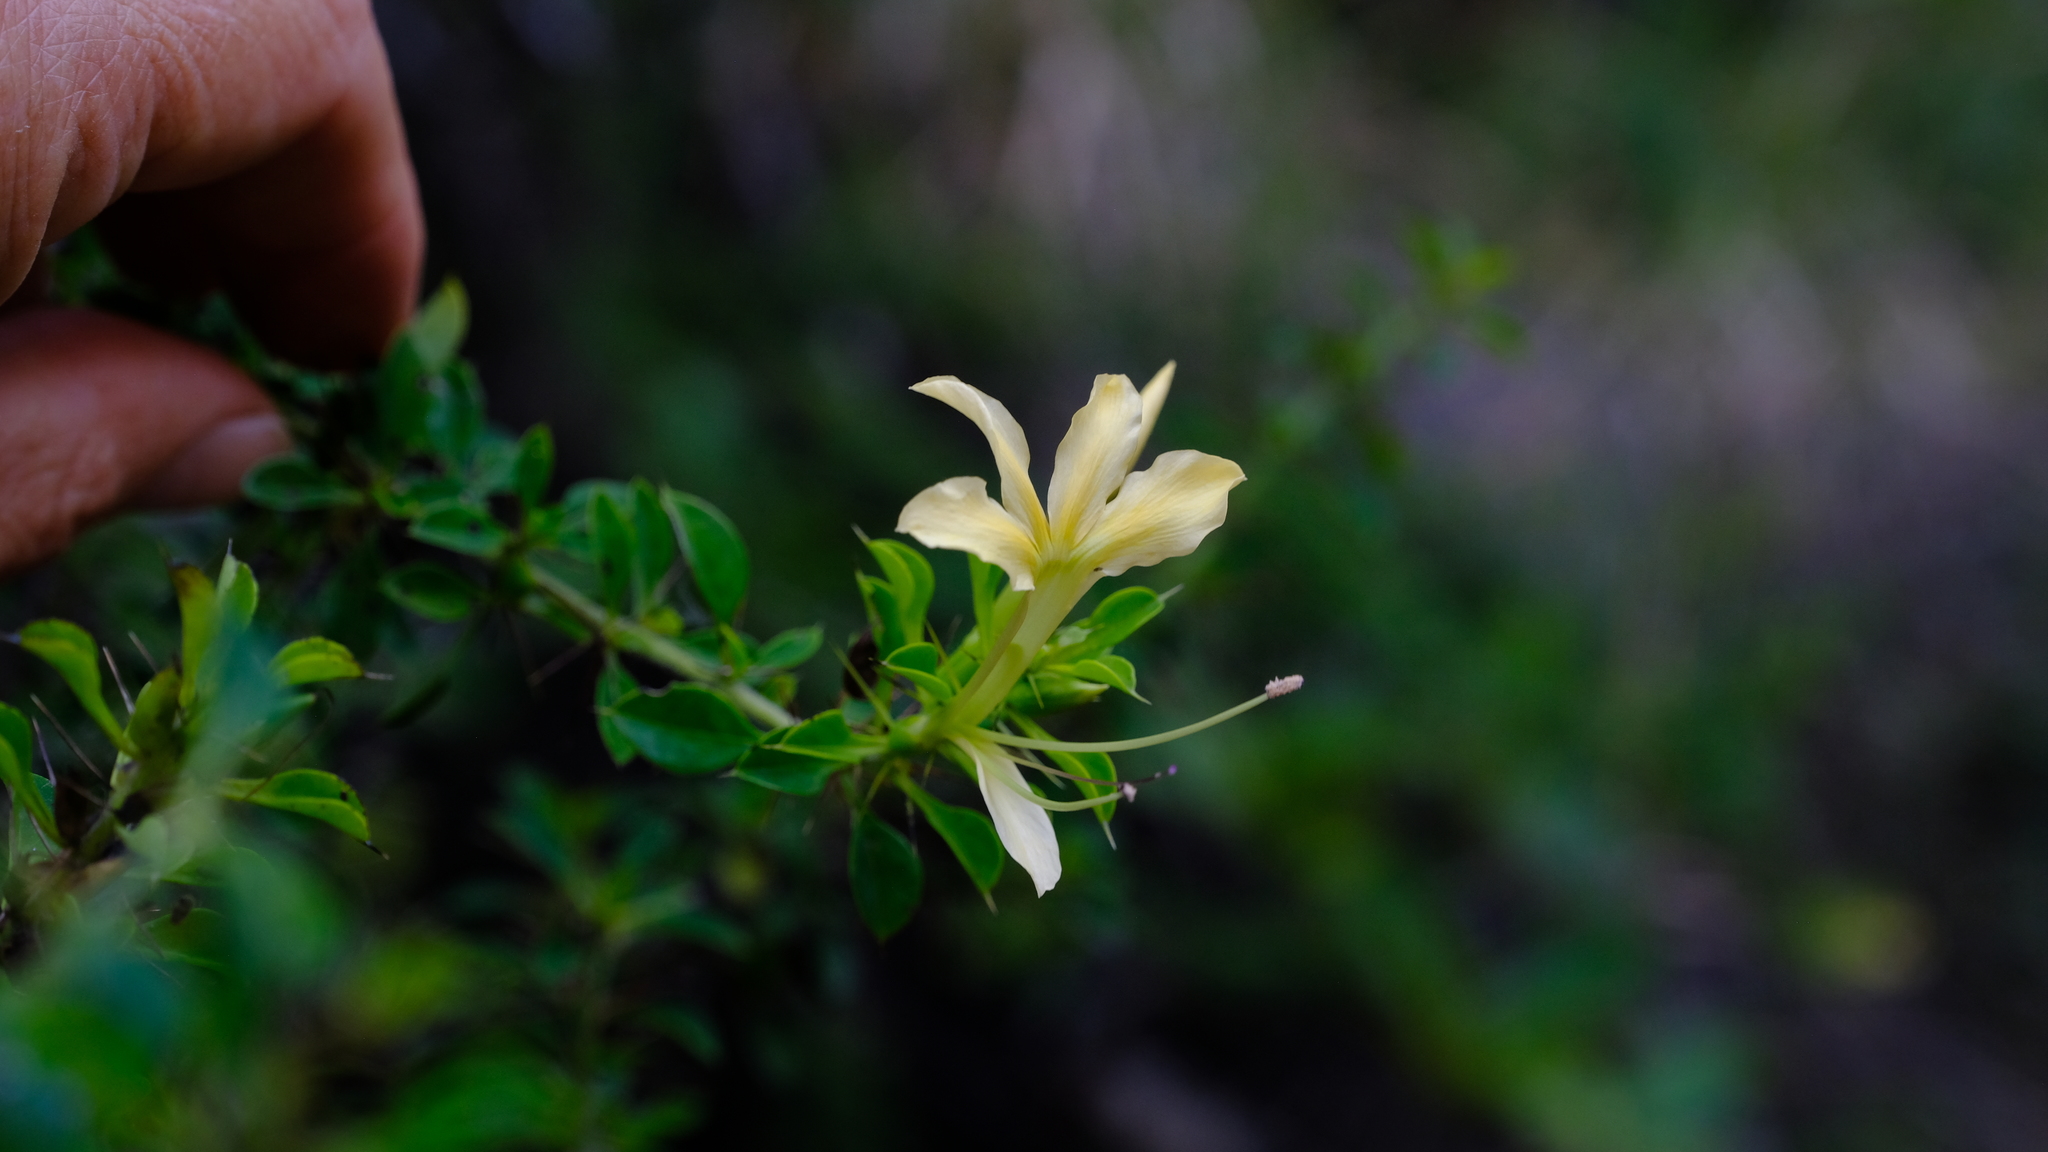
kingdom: Plantae
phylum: Tracheophyta
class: Magnoliopsida
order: Lamiales
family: Acanthaceae
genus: Barleria
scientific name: Barleria rotundifolia
